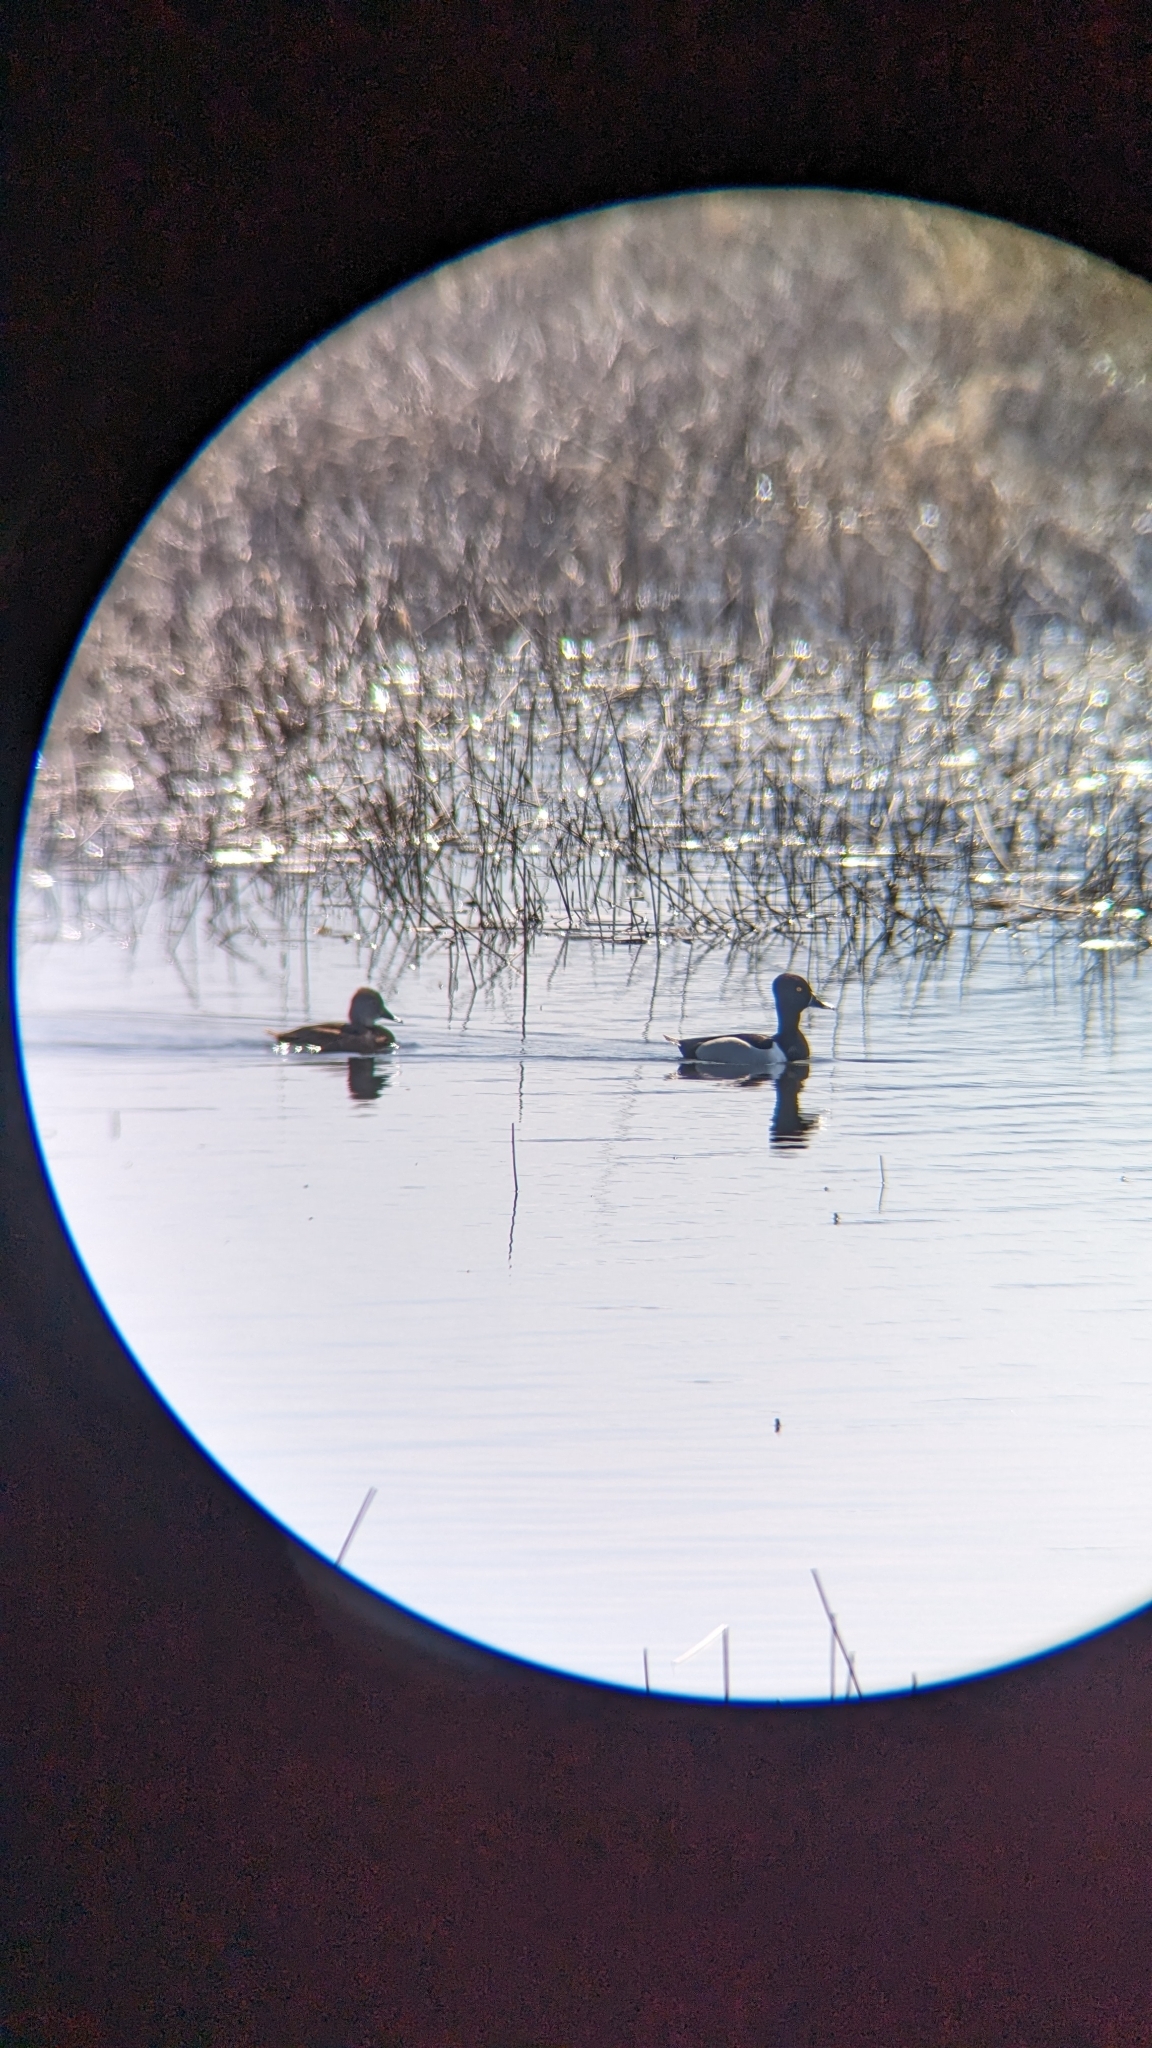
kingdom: Animalia
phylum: Chordata
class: Aves
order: Anseriformes
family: Anatidae
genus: Aythya
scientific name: Aythya collaris
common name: Ring-necked duck
